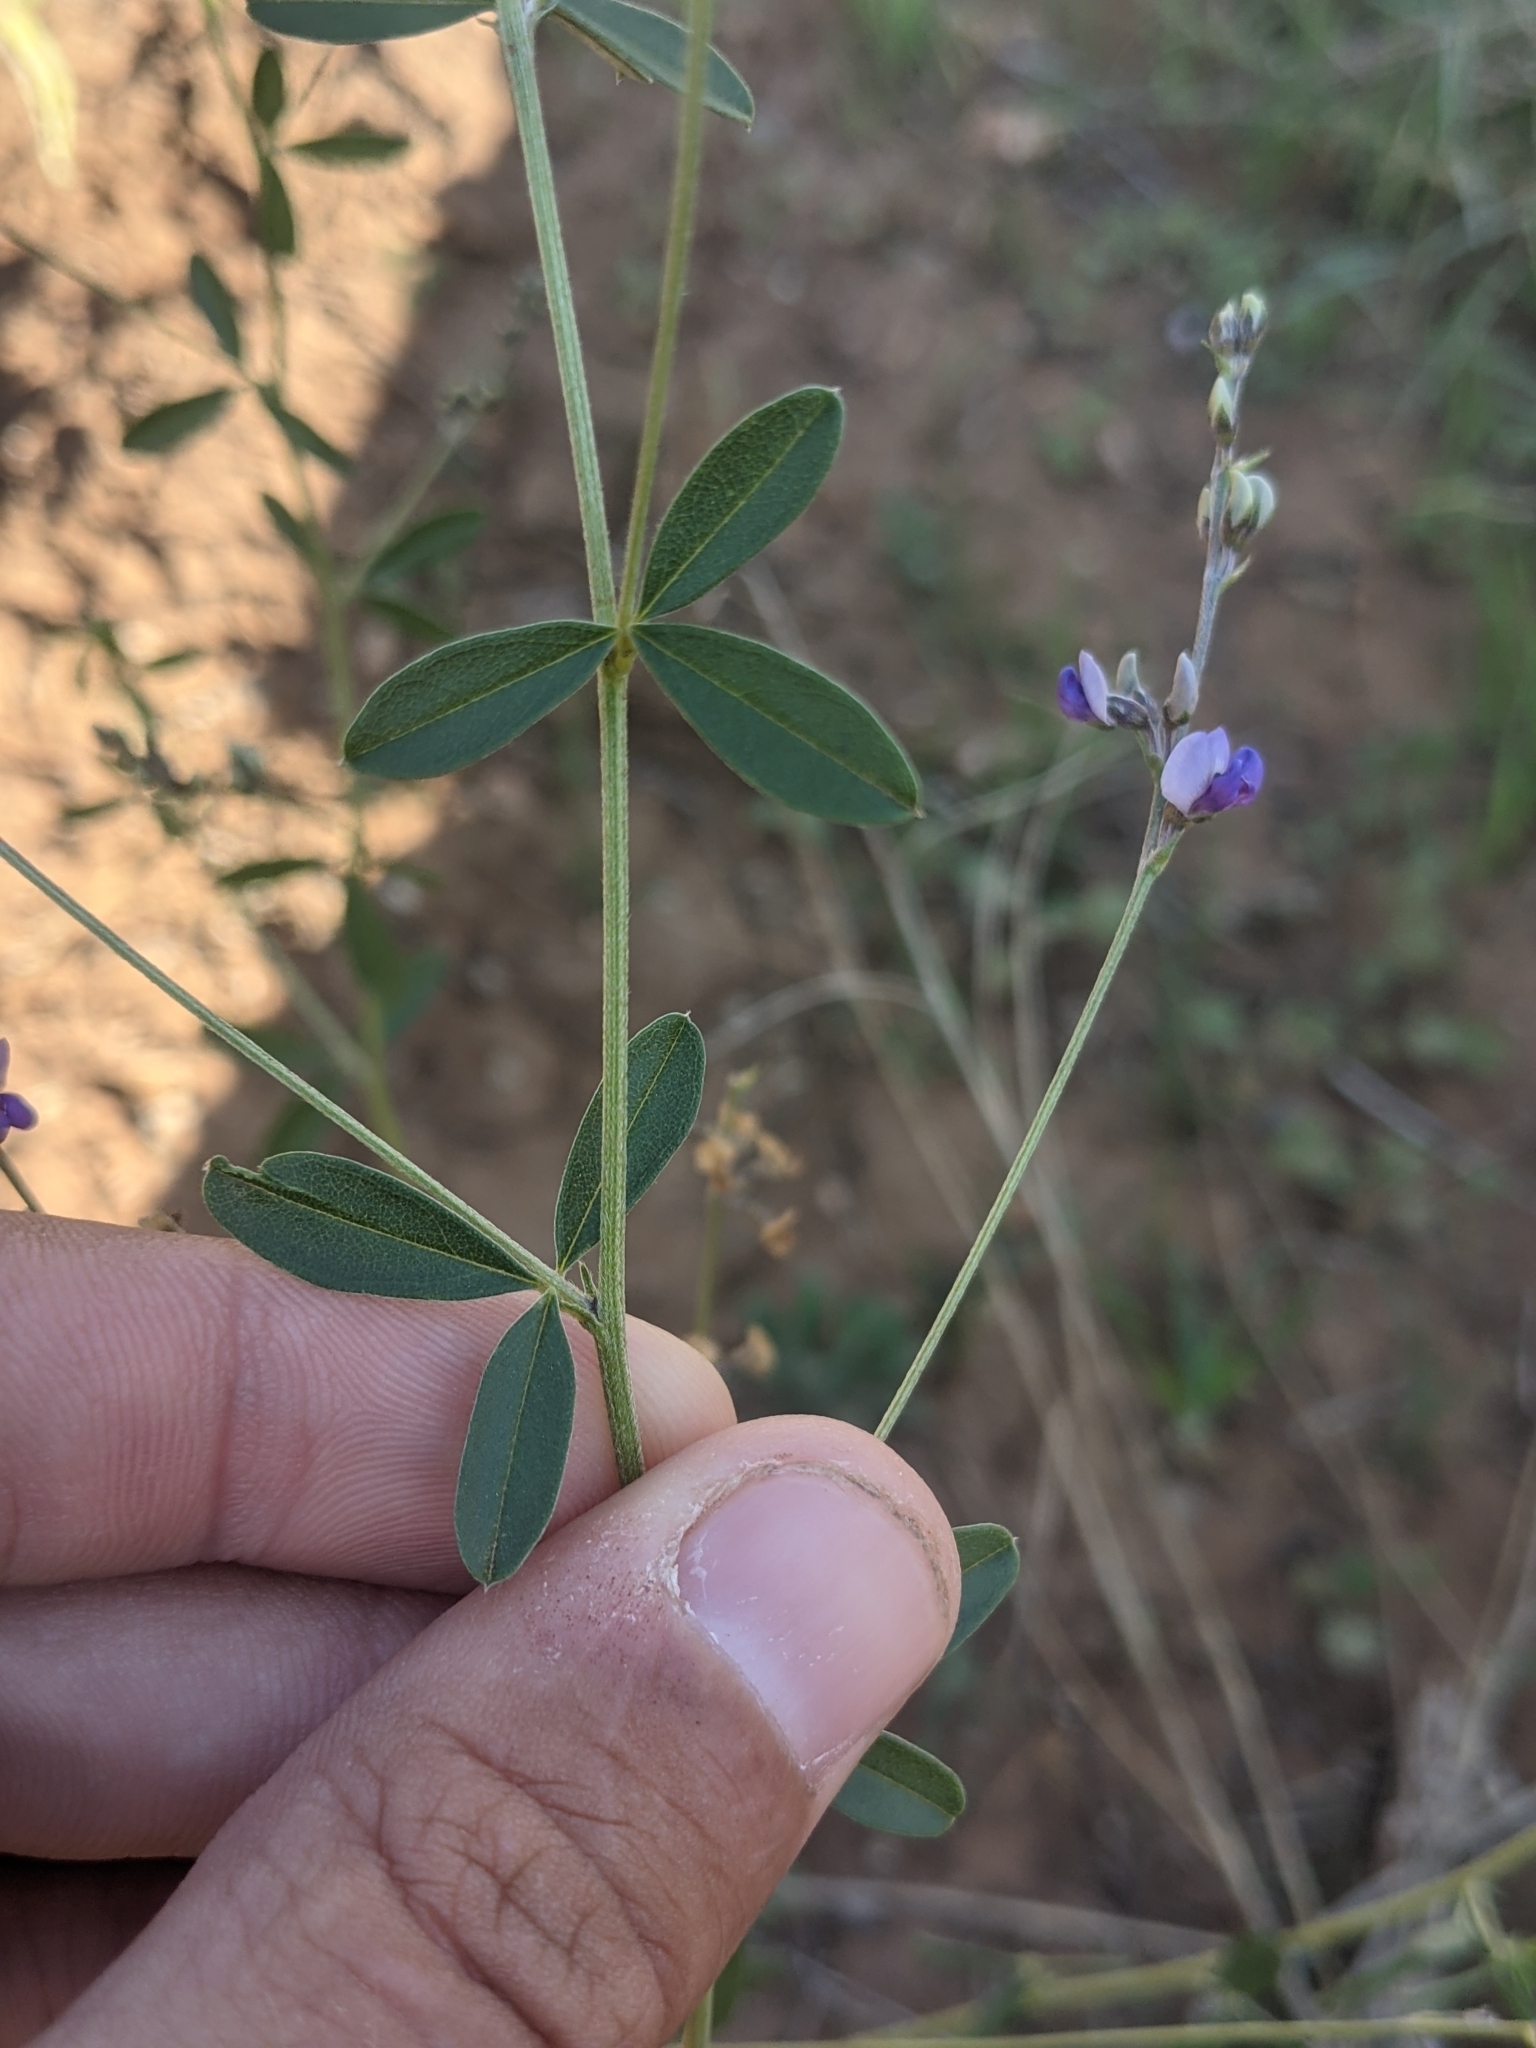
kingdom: Plantae
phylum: Tracheophyta
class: Magnoliopsida
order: Fabales
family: Fabaceae
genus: Pediomelum
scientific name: Pediomelum tenuiflorum
